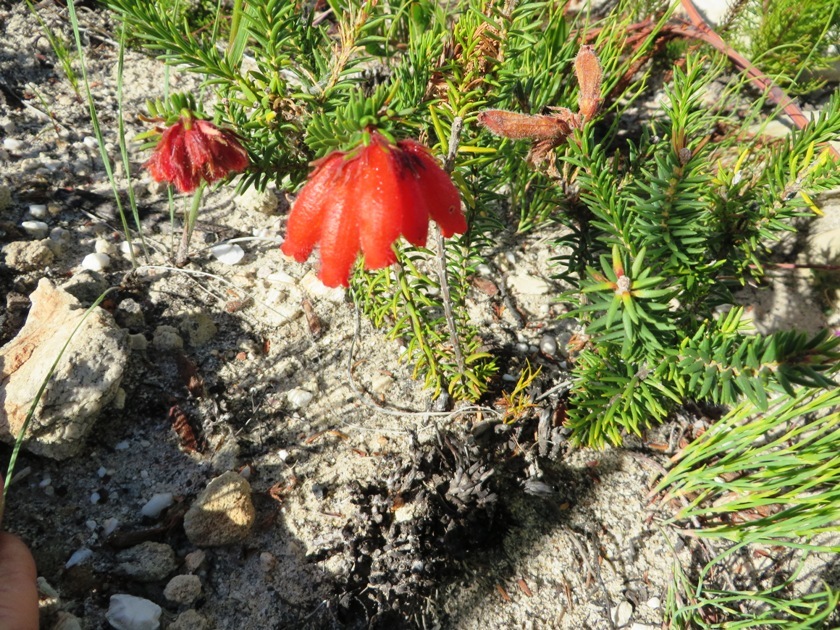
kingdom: Plantae
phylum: Tracheophyta
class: Magnoliopsida
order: Ericales
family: Ericaceae
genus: Erica
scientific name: Erica cerinthoides
